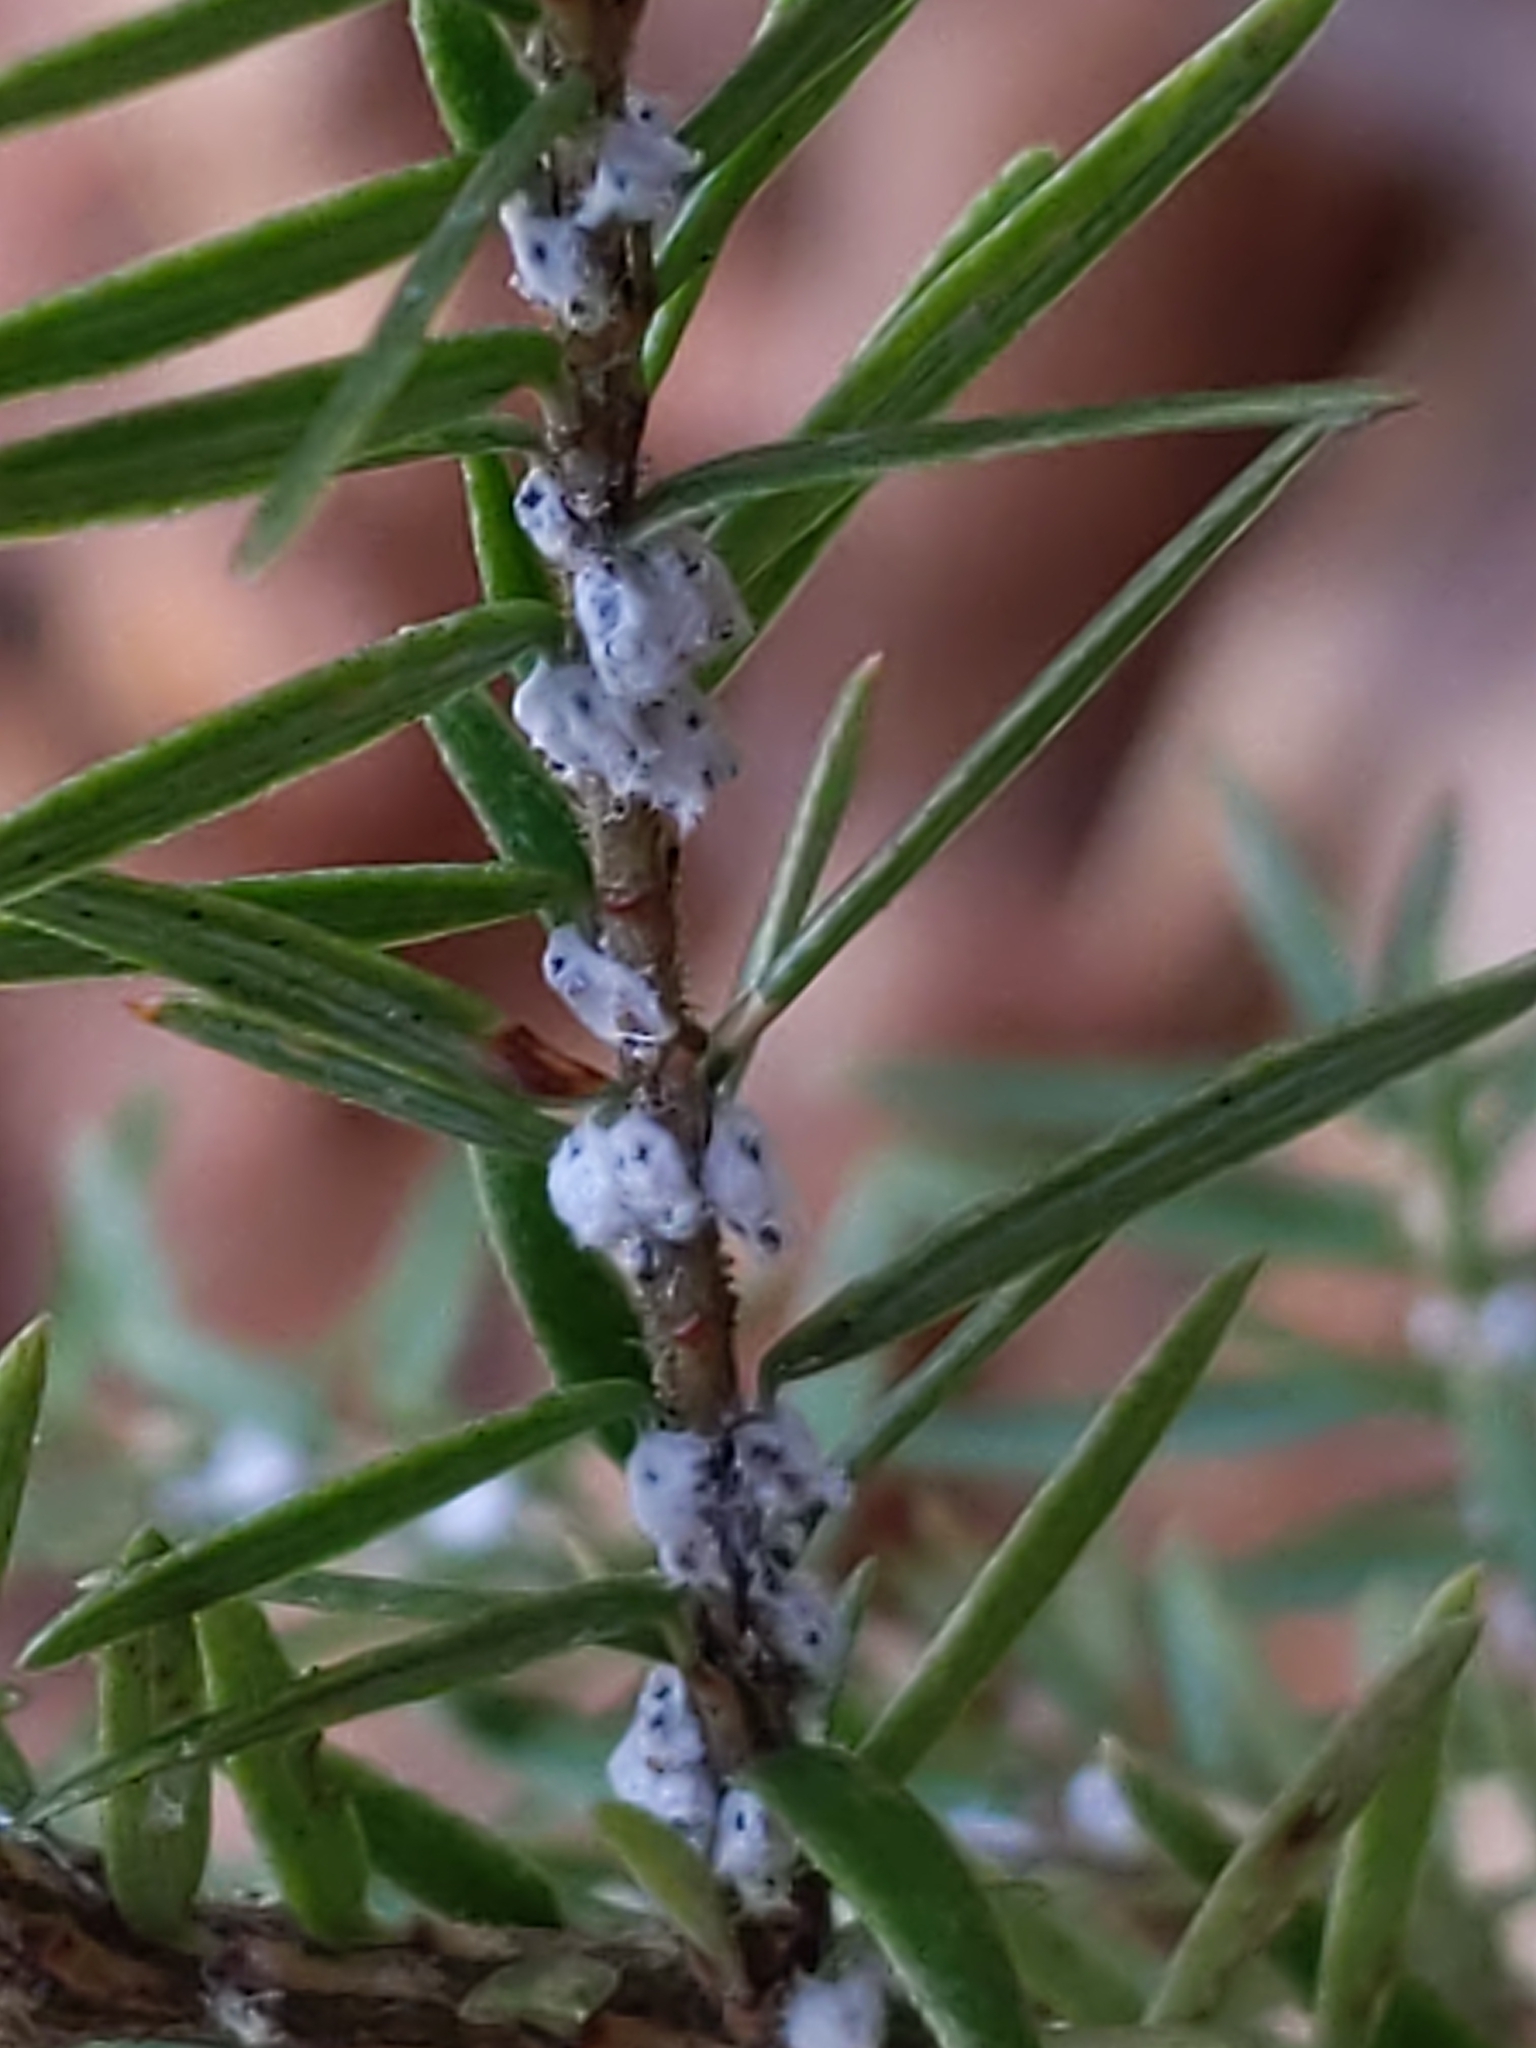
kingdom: Animalia
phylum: Arthropoda
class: Insecta
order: Hemiptera
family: Adelgidae
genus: Adelges
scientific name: Adelges tsugae
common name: Hemlock woolly adelgid
